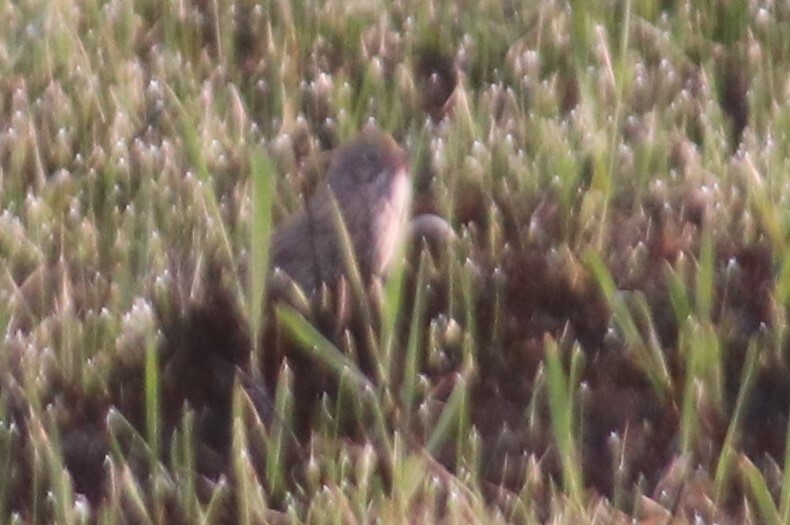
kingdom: Animalia
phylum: Chordata
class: Aves
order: Passeriformes
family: Passerellidae
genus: Pooecetes
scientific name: Pooecetes gramineus
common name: Vesper sparrow
